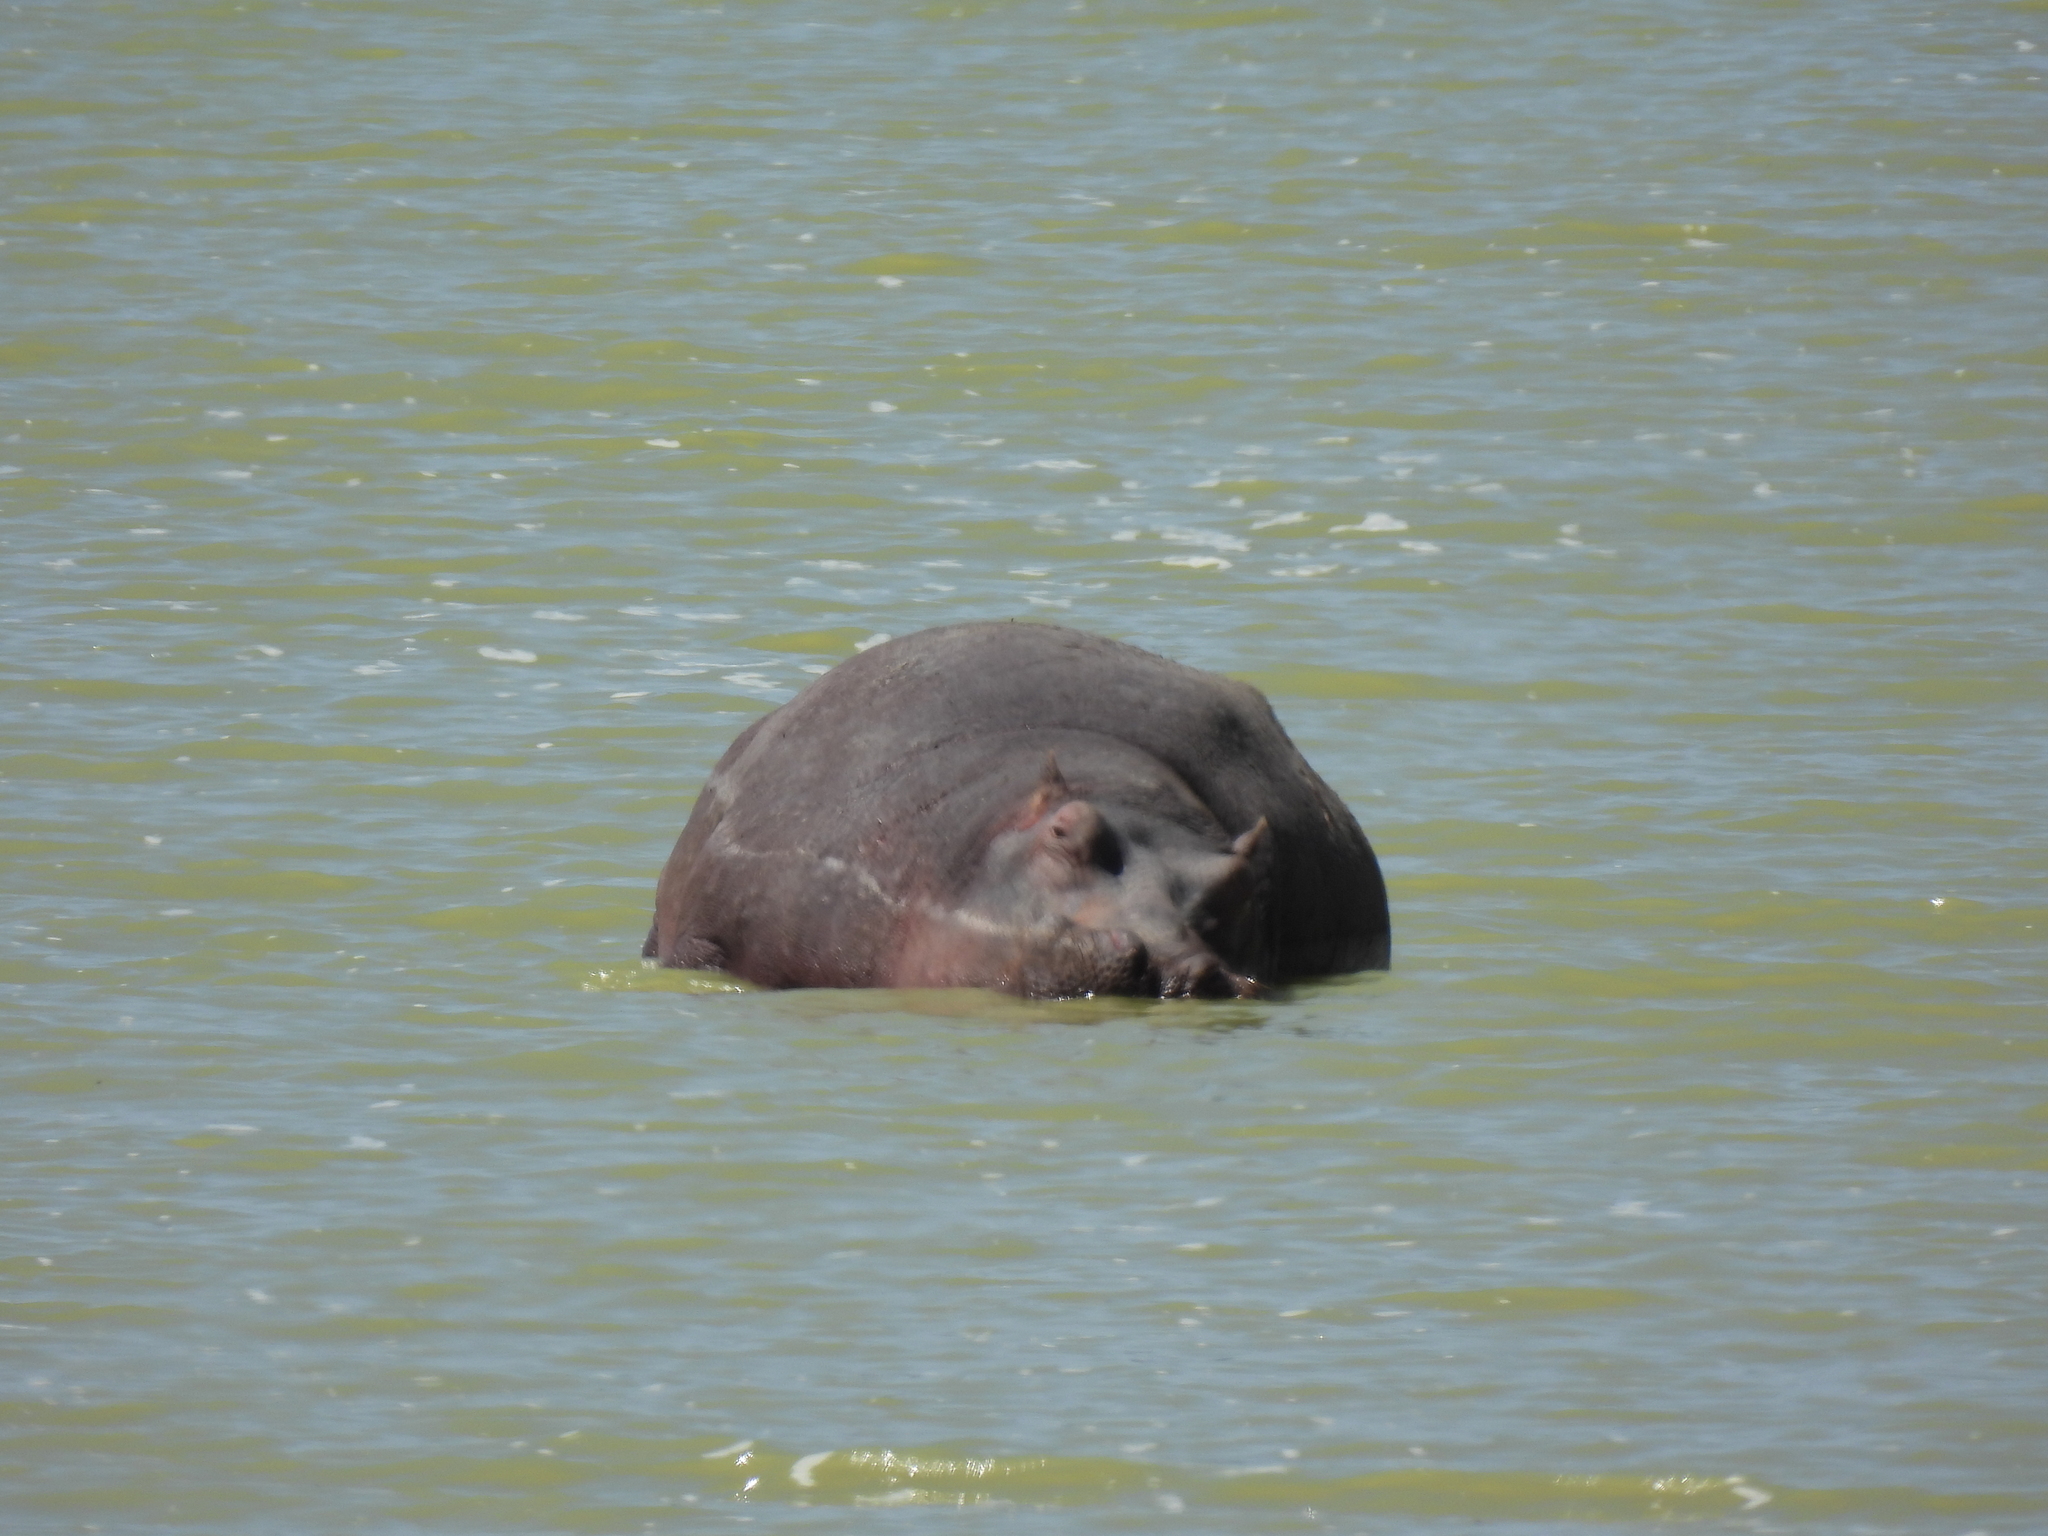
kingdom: Animalia
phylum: Chordata
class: Mammalia
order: Artiodactyla
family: Hippopotamidae
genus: Hippopotamus
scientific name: Hippopotamus amphibius
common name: Common hippopotamus
